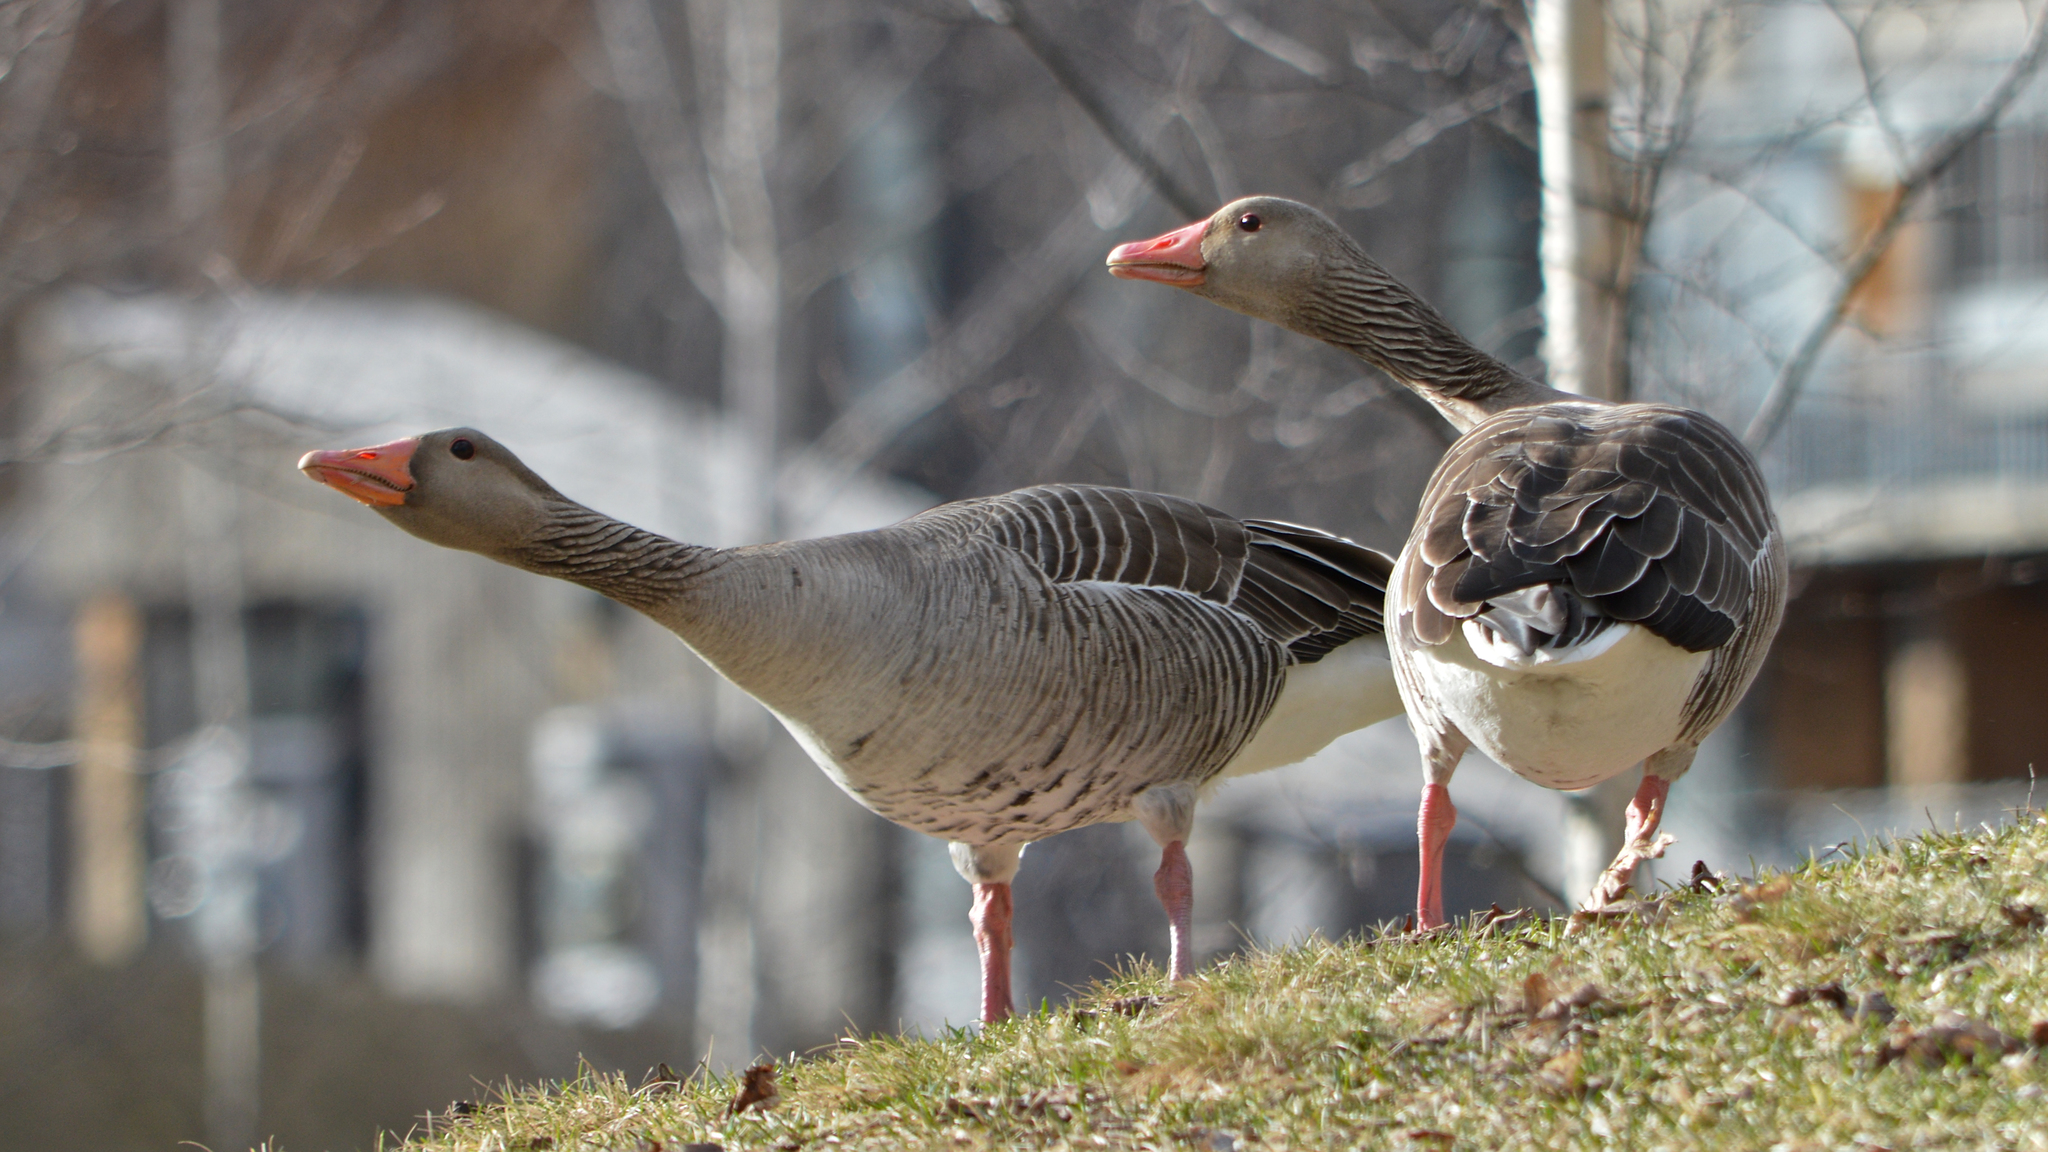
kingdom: Animalia
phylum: Chordata
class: Aves
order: Anseriformes
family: Anatidae
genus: Anser
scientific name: Anser anser
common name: Greylag goose
